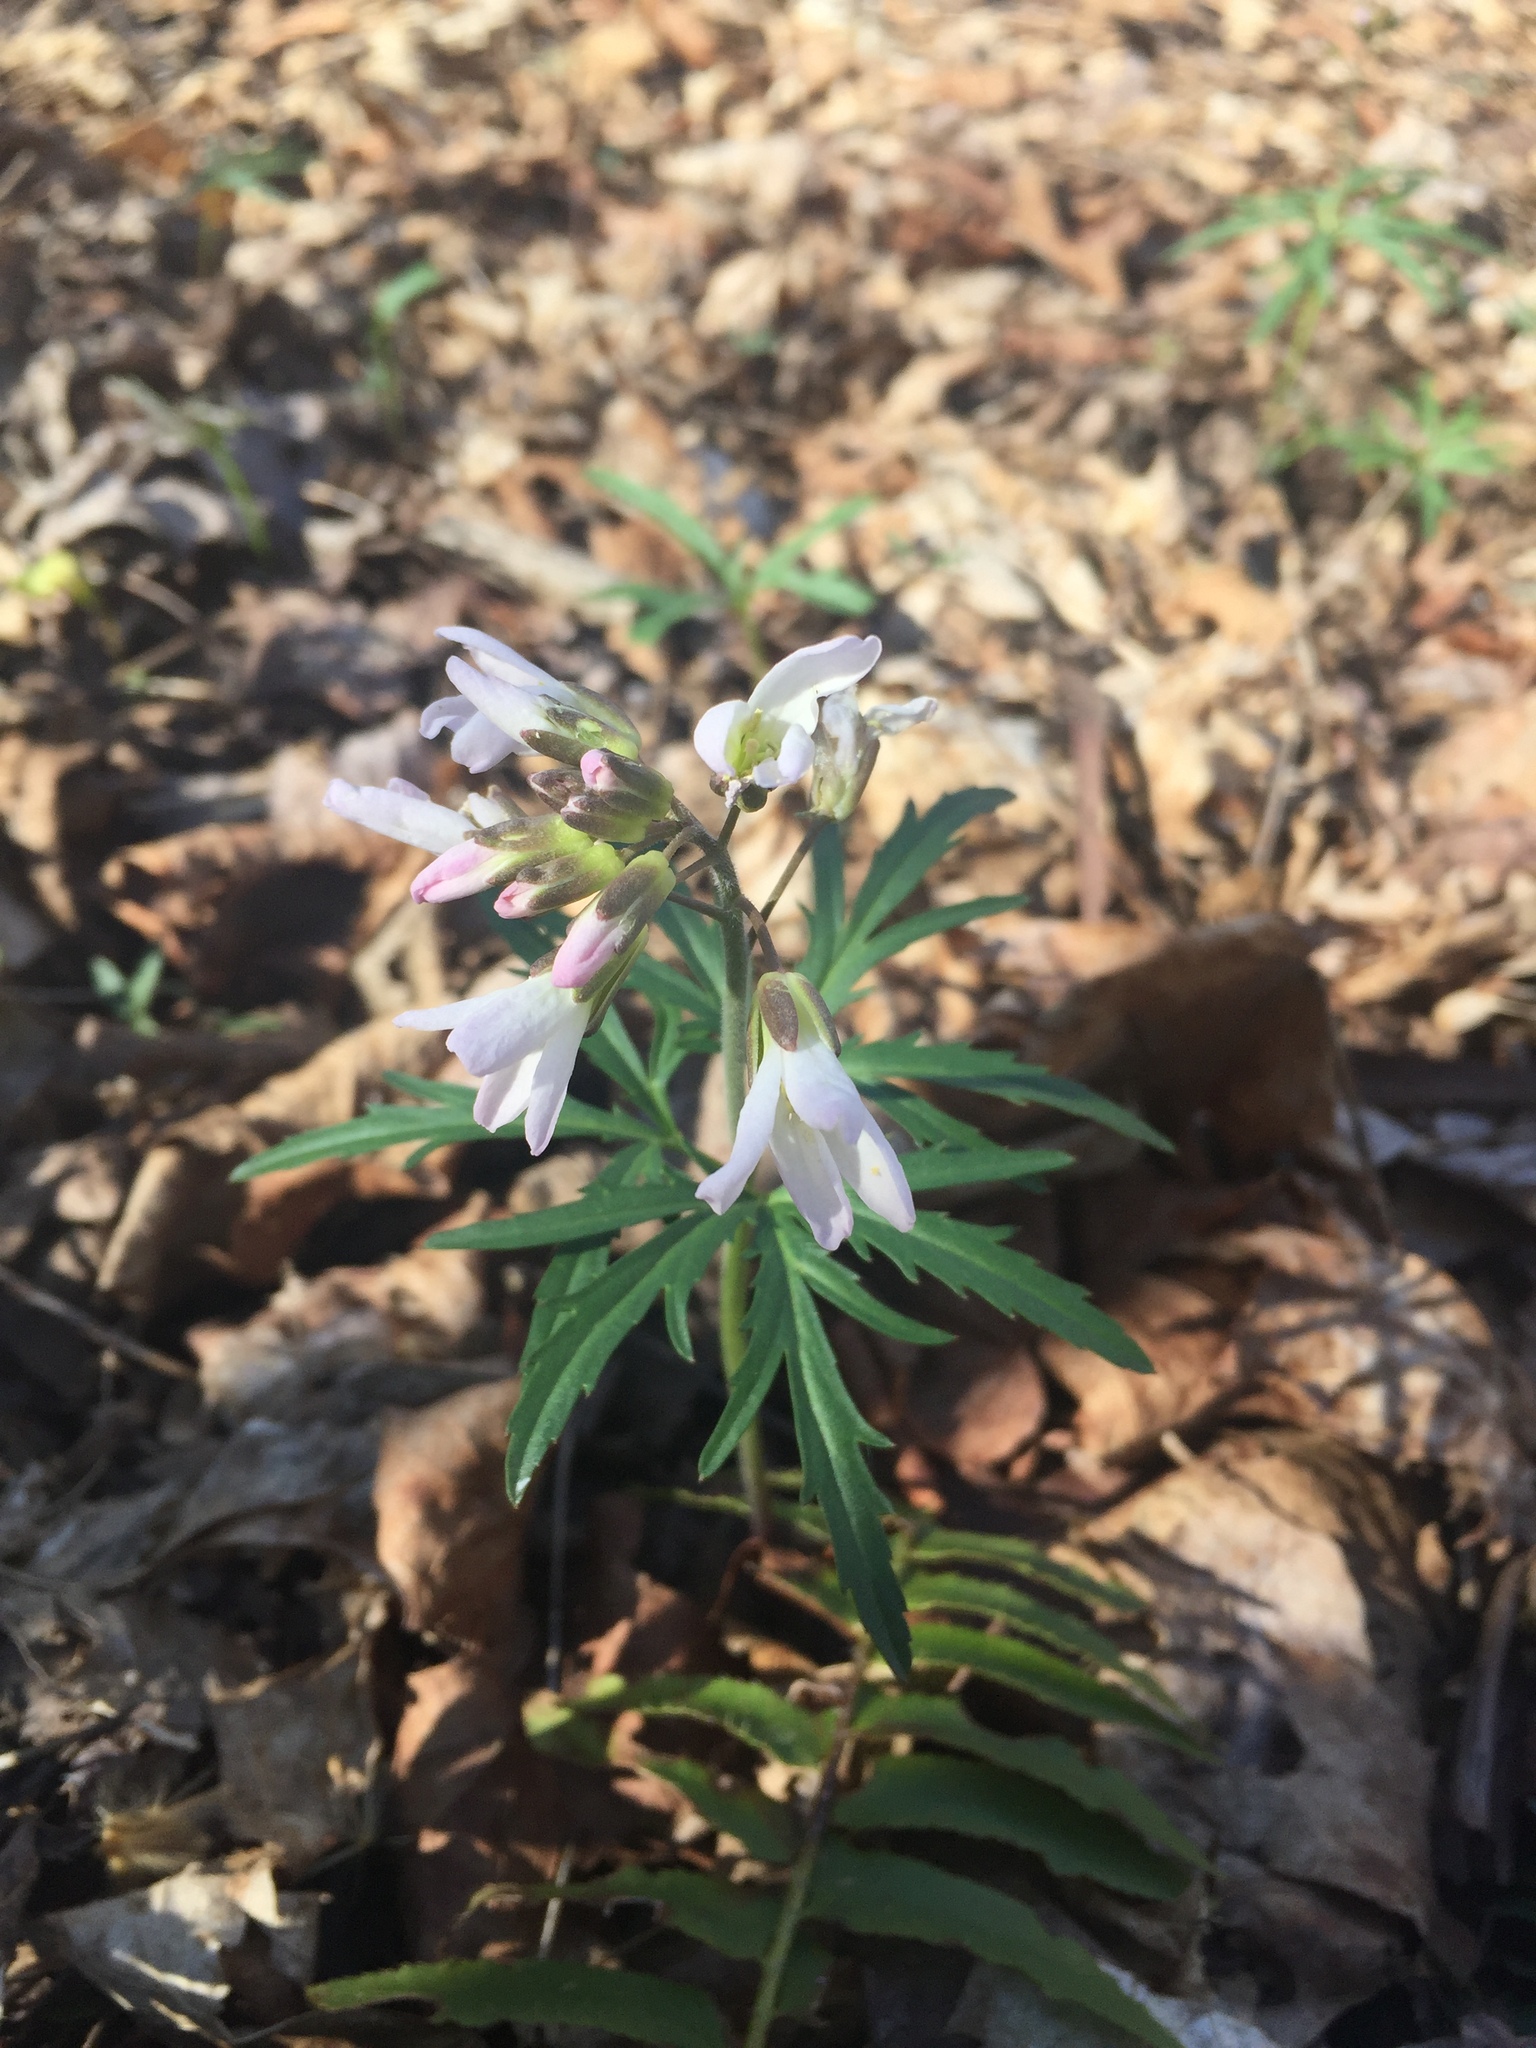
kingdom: Plantae
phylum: Tracheophyta
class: Magnoliopsida
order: Brassicales
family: Brassicaceae
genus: Cardamine
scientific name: Cardamine concatenata
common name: Cut-leaf toothcup
